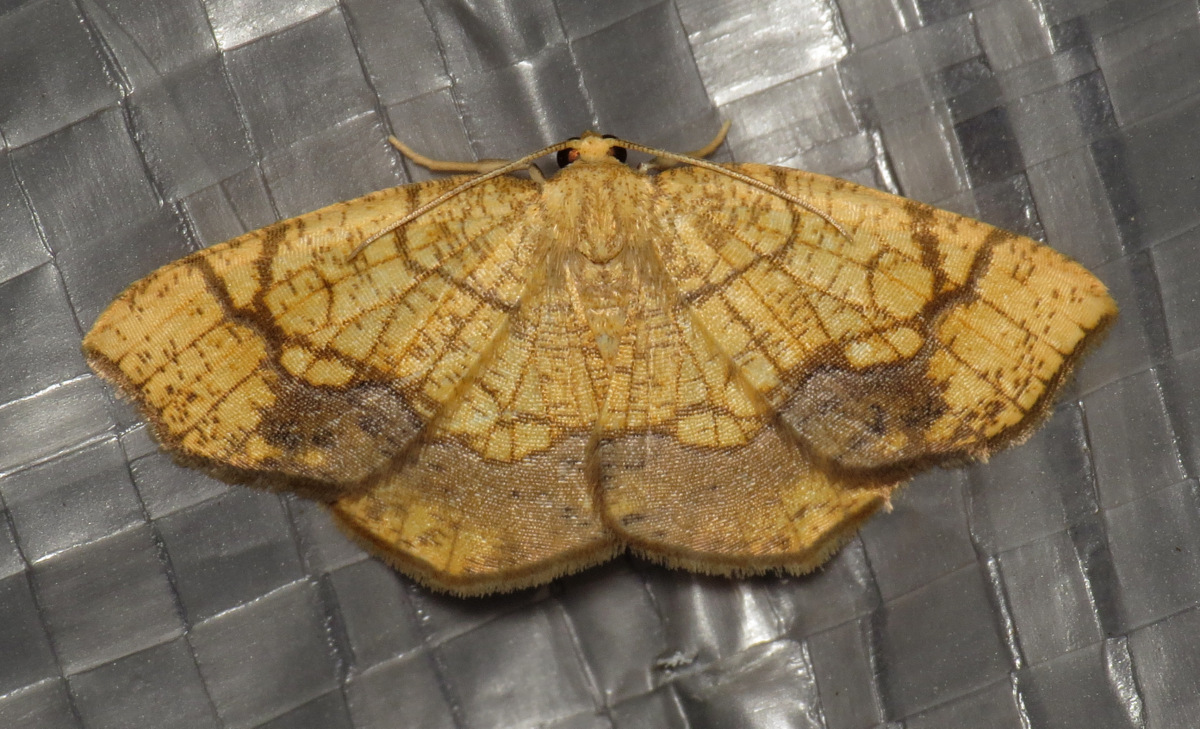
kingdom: Animalia
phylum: Arthropoda
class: Insecta
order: Lepidoptera
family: Geometridae
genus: Nematocampa
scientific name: Nematocampa resistaria
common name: Horned spanworm moth
